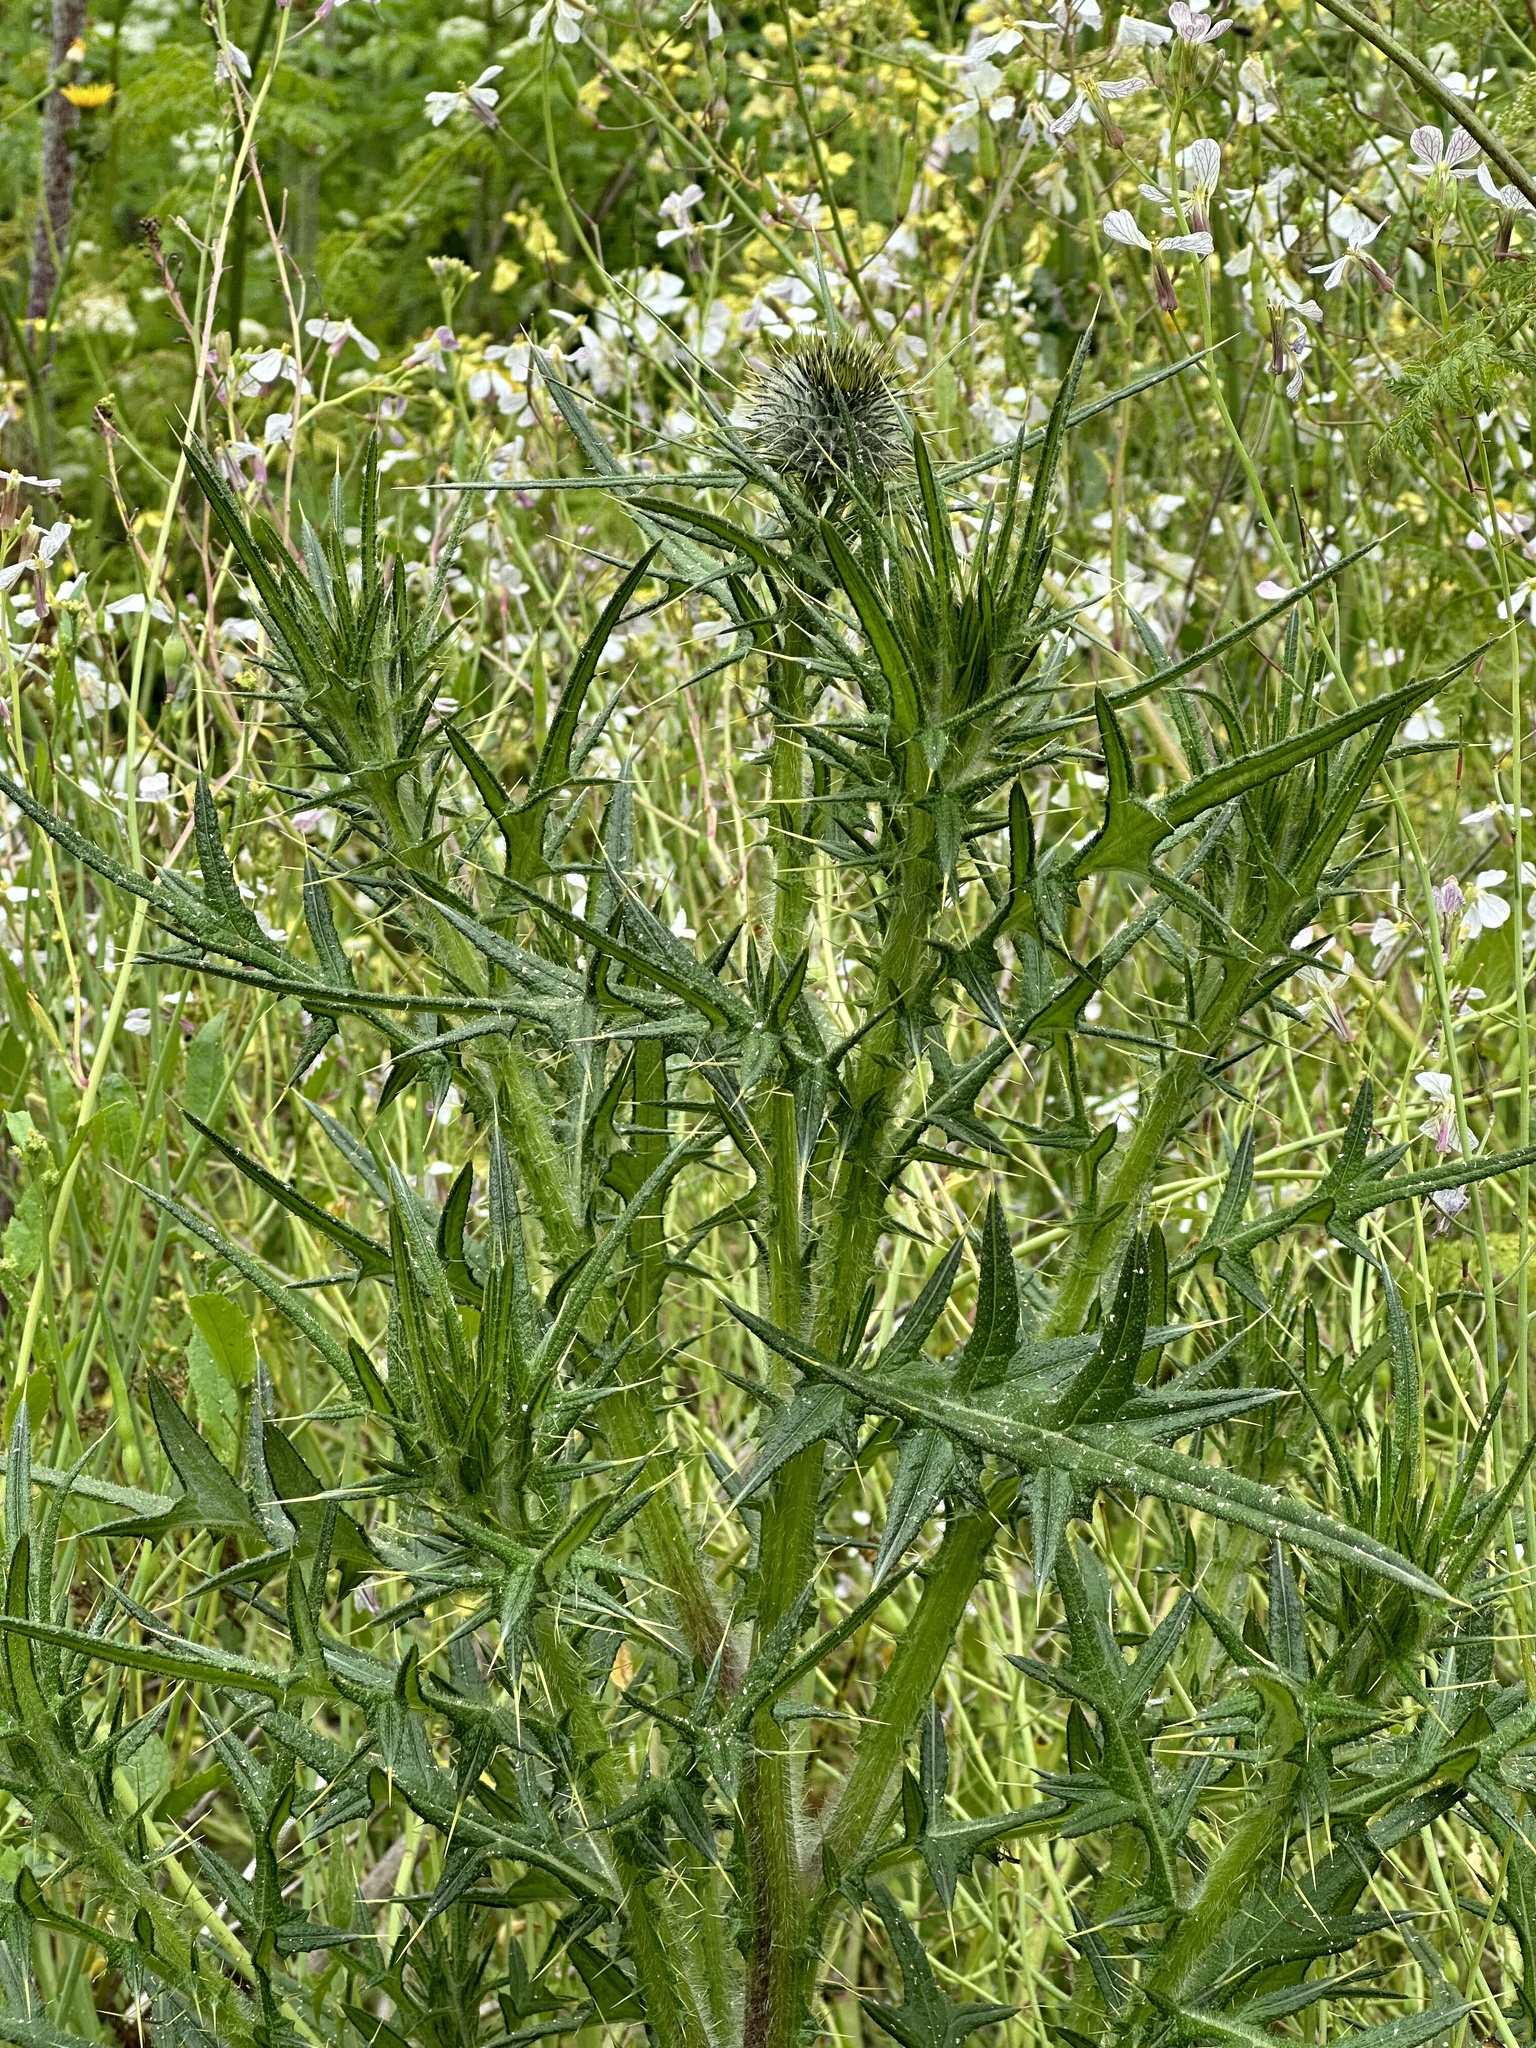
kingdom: Plantae
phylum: Tracheophyta
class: Magnoliopsida
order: Asterales
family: Asteraceae
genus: Cirsium
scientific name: Cirsium vulgare
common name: Bull thistle
